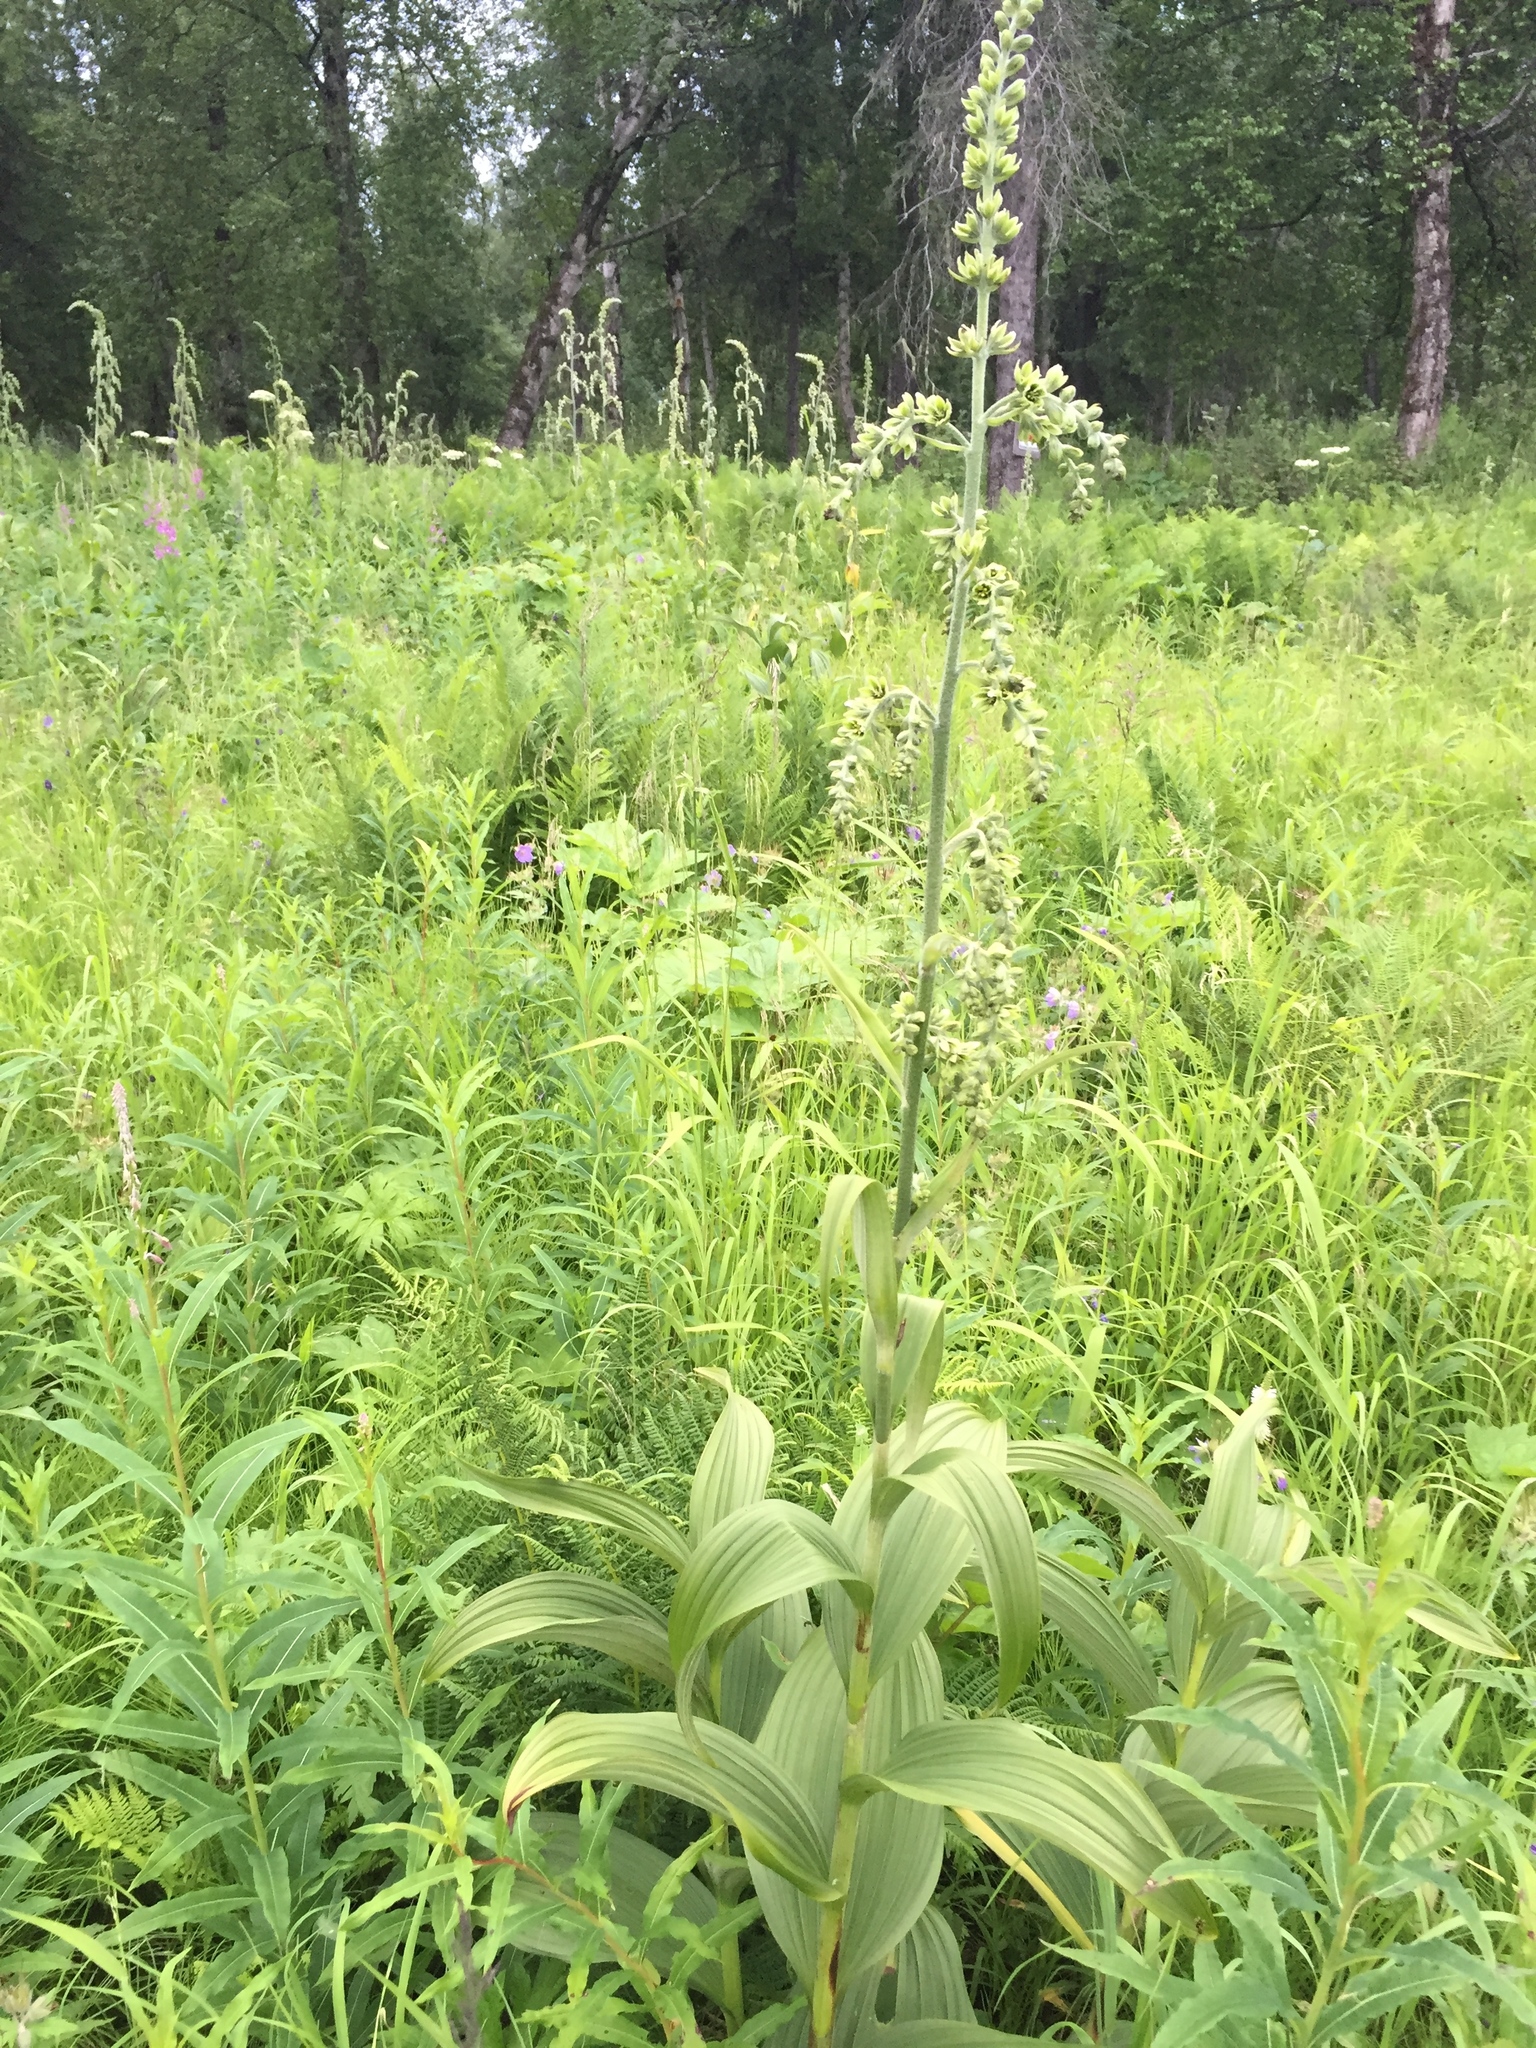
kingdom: Plantae
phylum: Tracheophyta
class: Liliopsida
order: Liliales
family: Melanthiaceae
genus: Veratrum
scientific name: Veratrum viride
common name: American false hellebore
